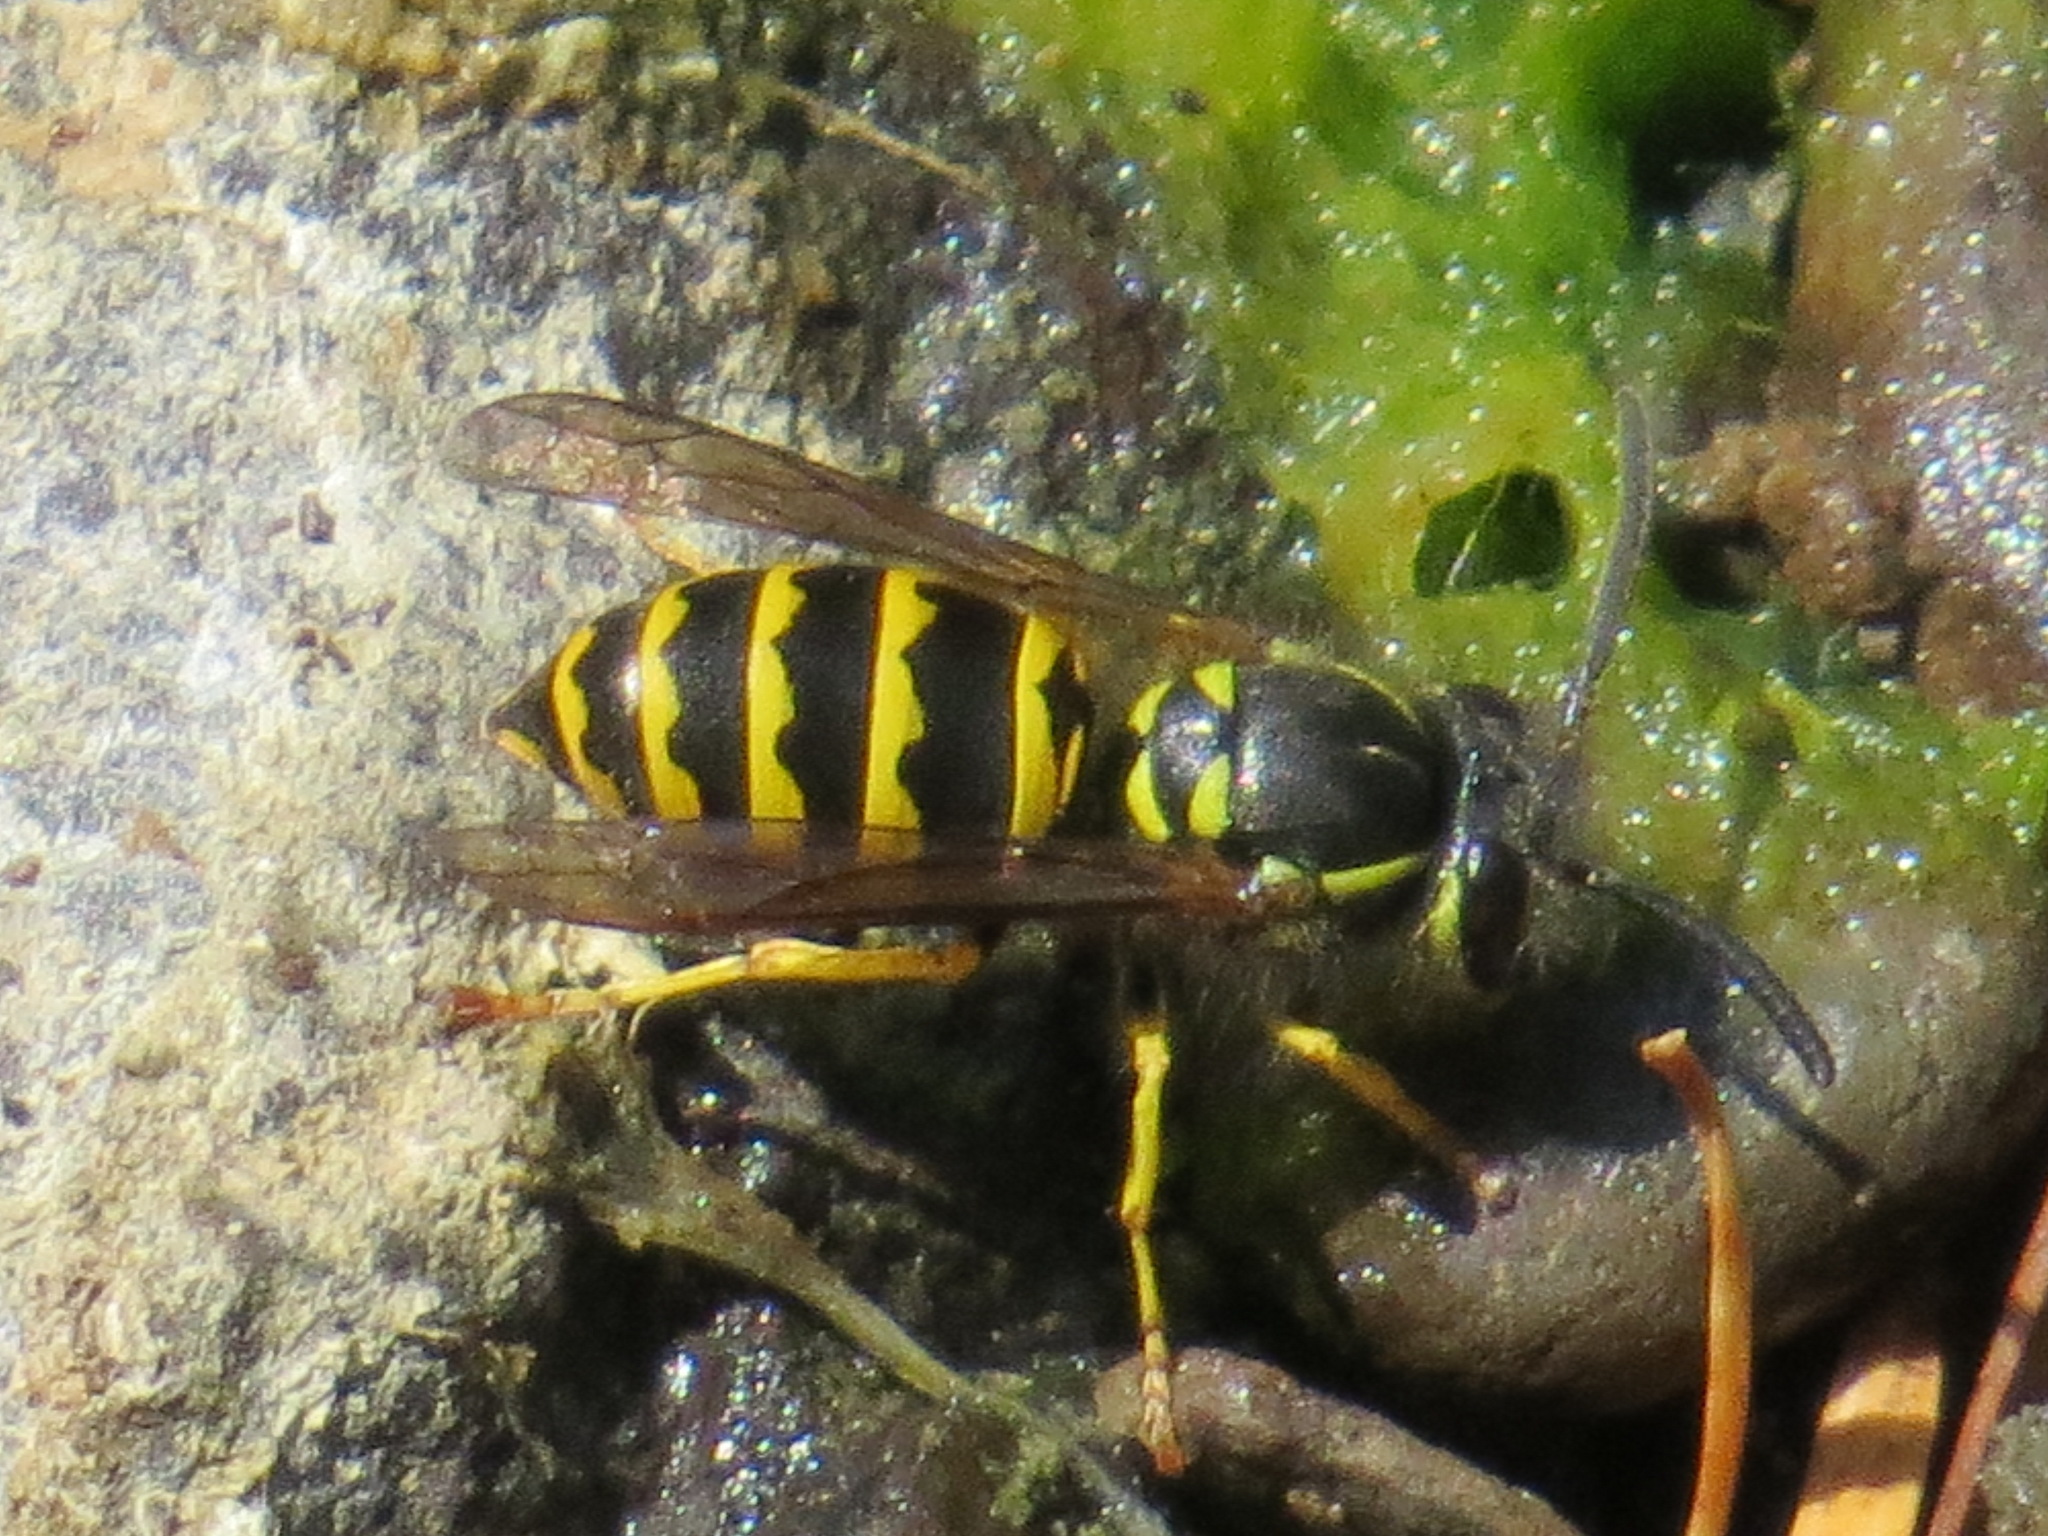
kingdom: Animalia
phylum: Arthropoda
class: Insecta
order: Hymenoptera
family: Vespidae
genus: Vespula
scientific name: Vespula alascensis
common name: Alaska yellowjacket
